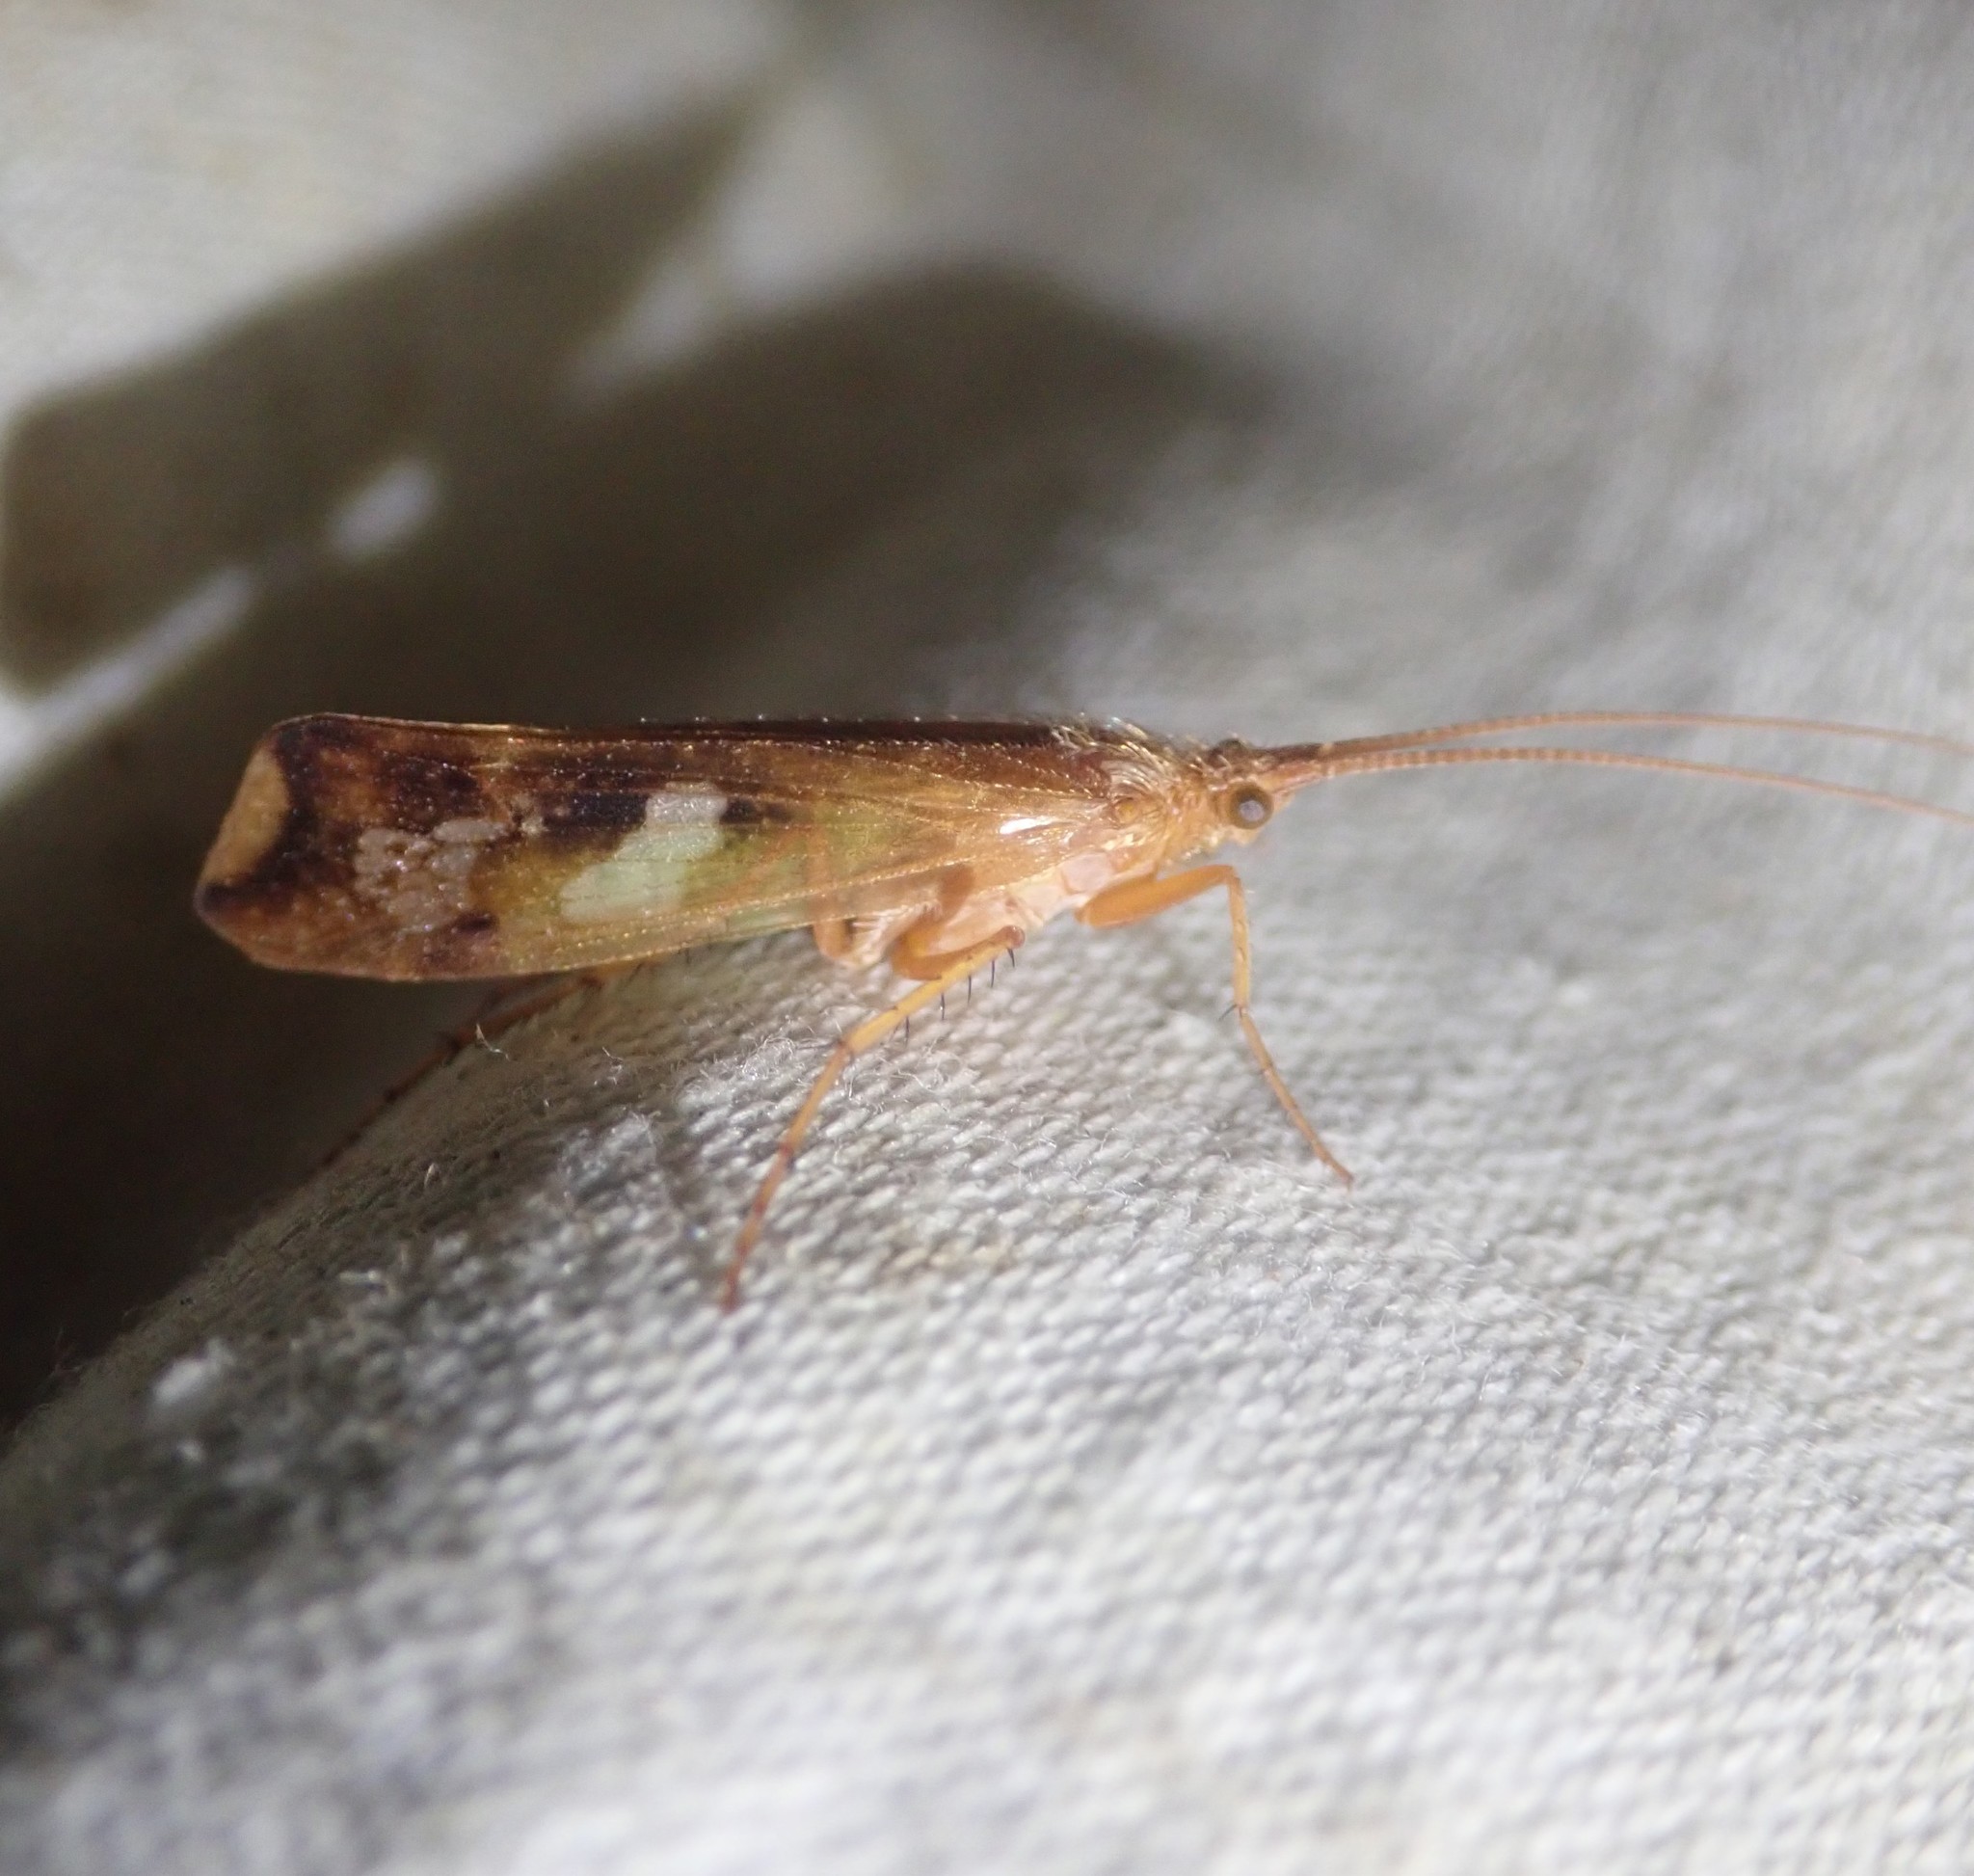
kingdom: Animalia
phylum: Arthropoda
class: Insecta
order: Trichoptera
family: Limnephilidae
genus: Limnephilus
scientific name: Limnephilus lunatus
